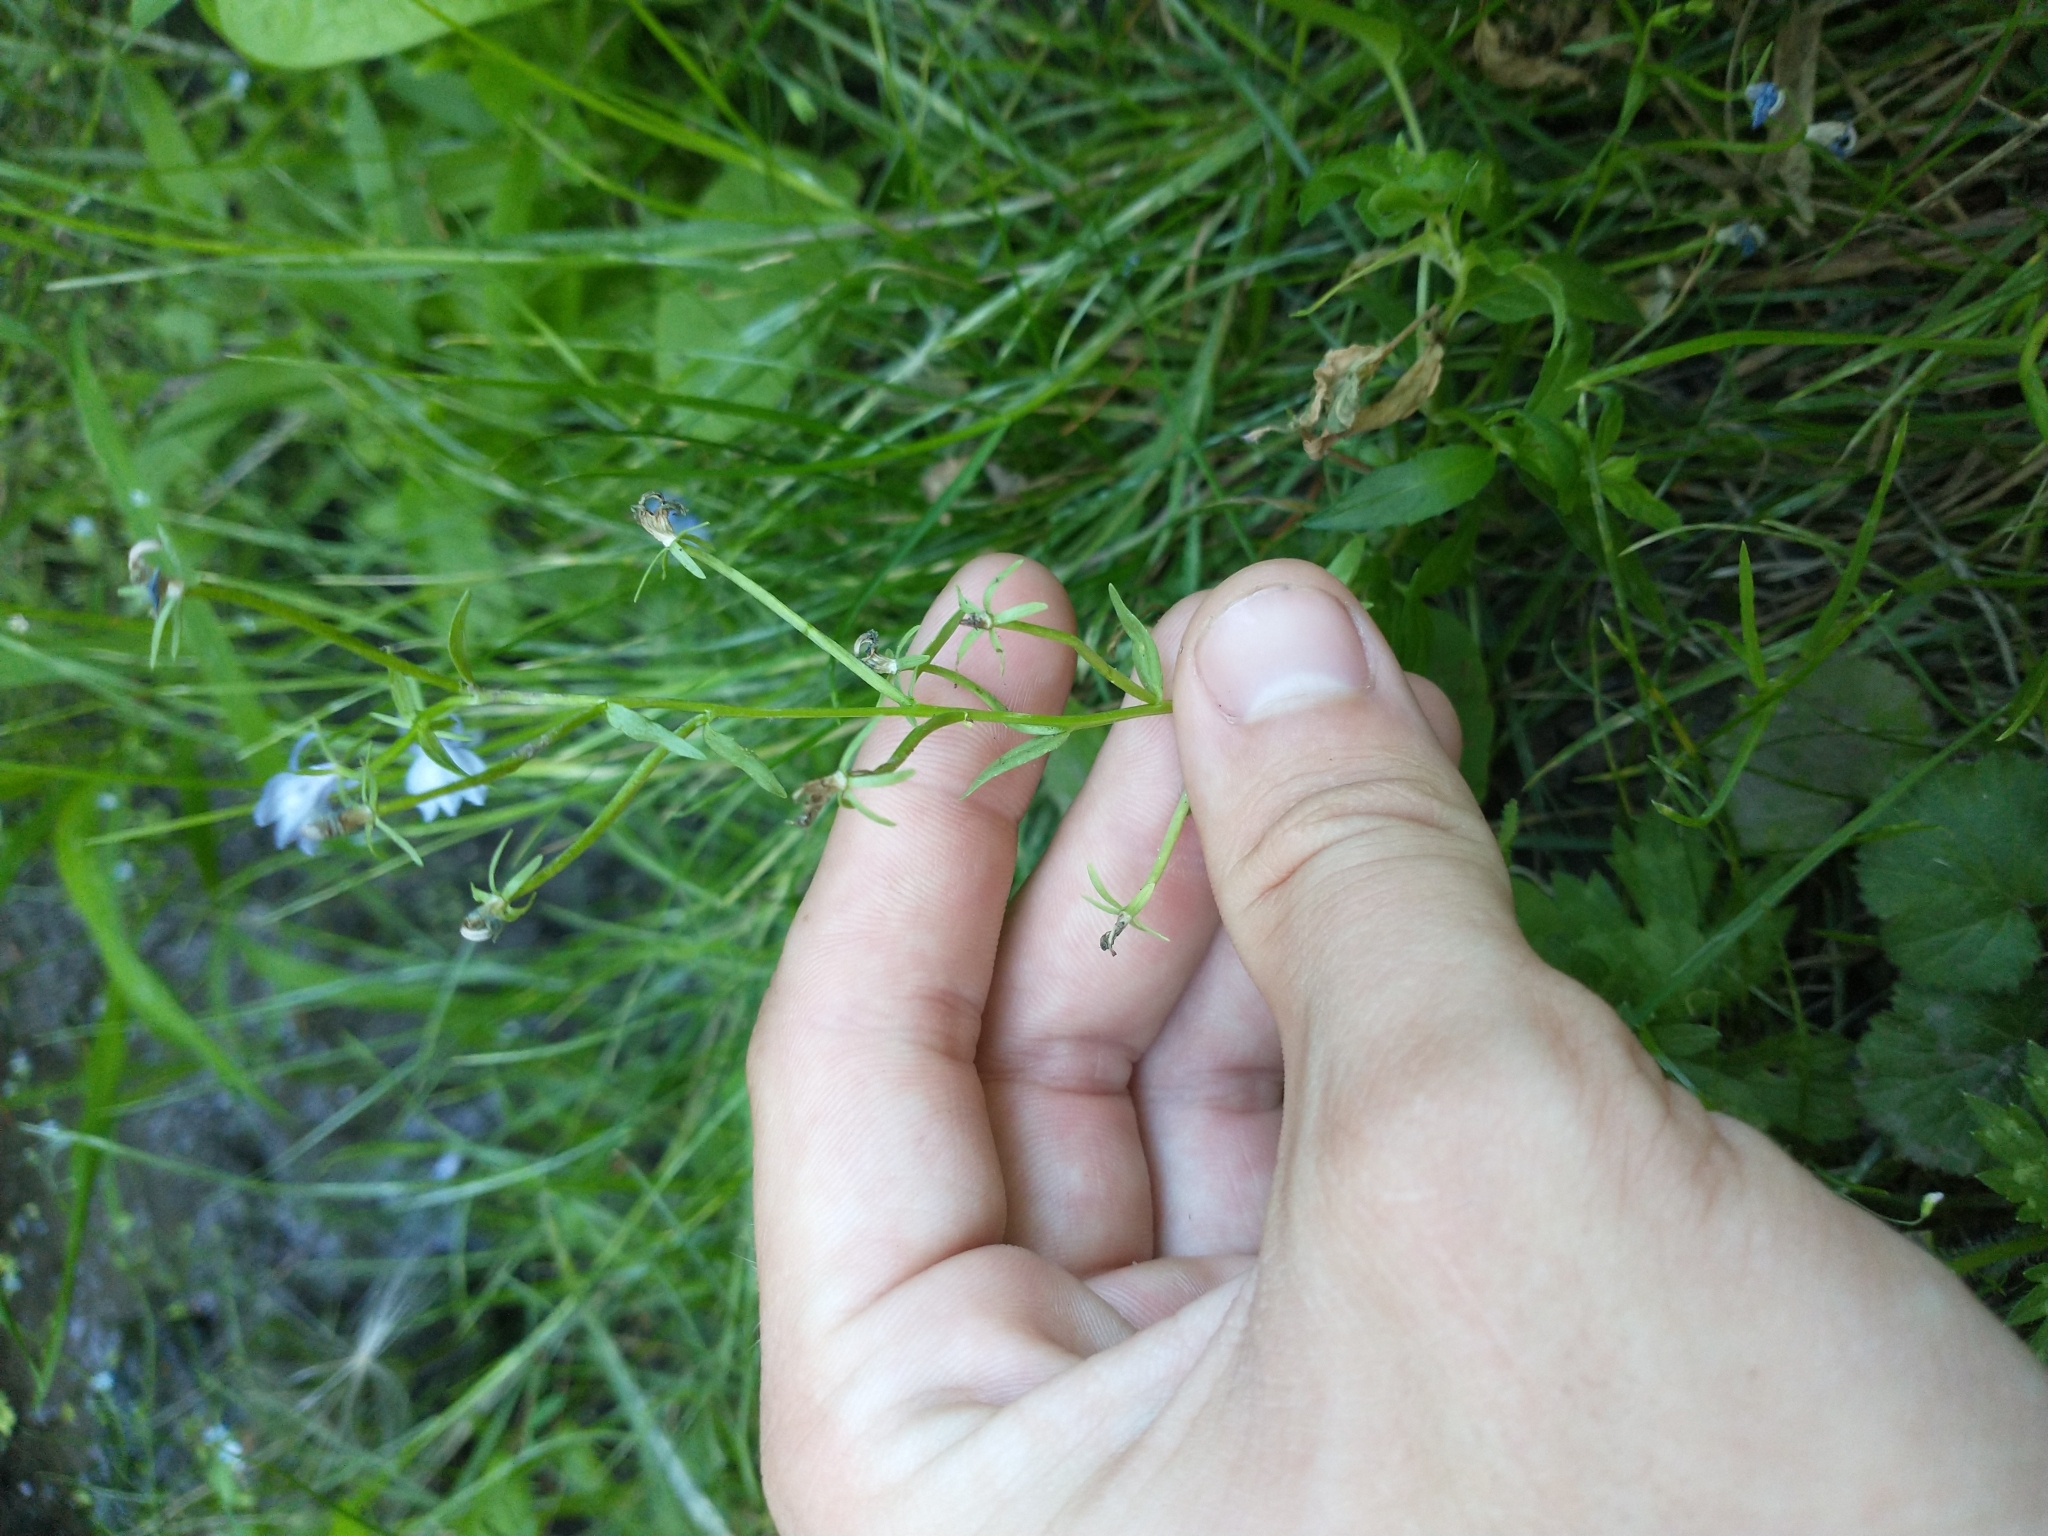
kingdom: Plantae
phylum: Tracheophyta
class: Magnoliopsida
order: Asterales
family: Campanulaceae
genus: Downingia
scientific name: Downingia elegans
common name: Californian lobelia
